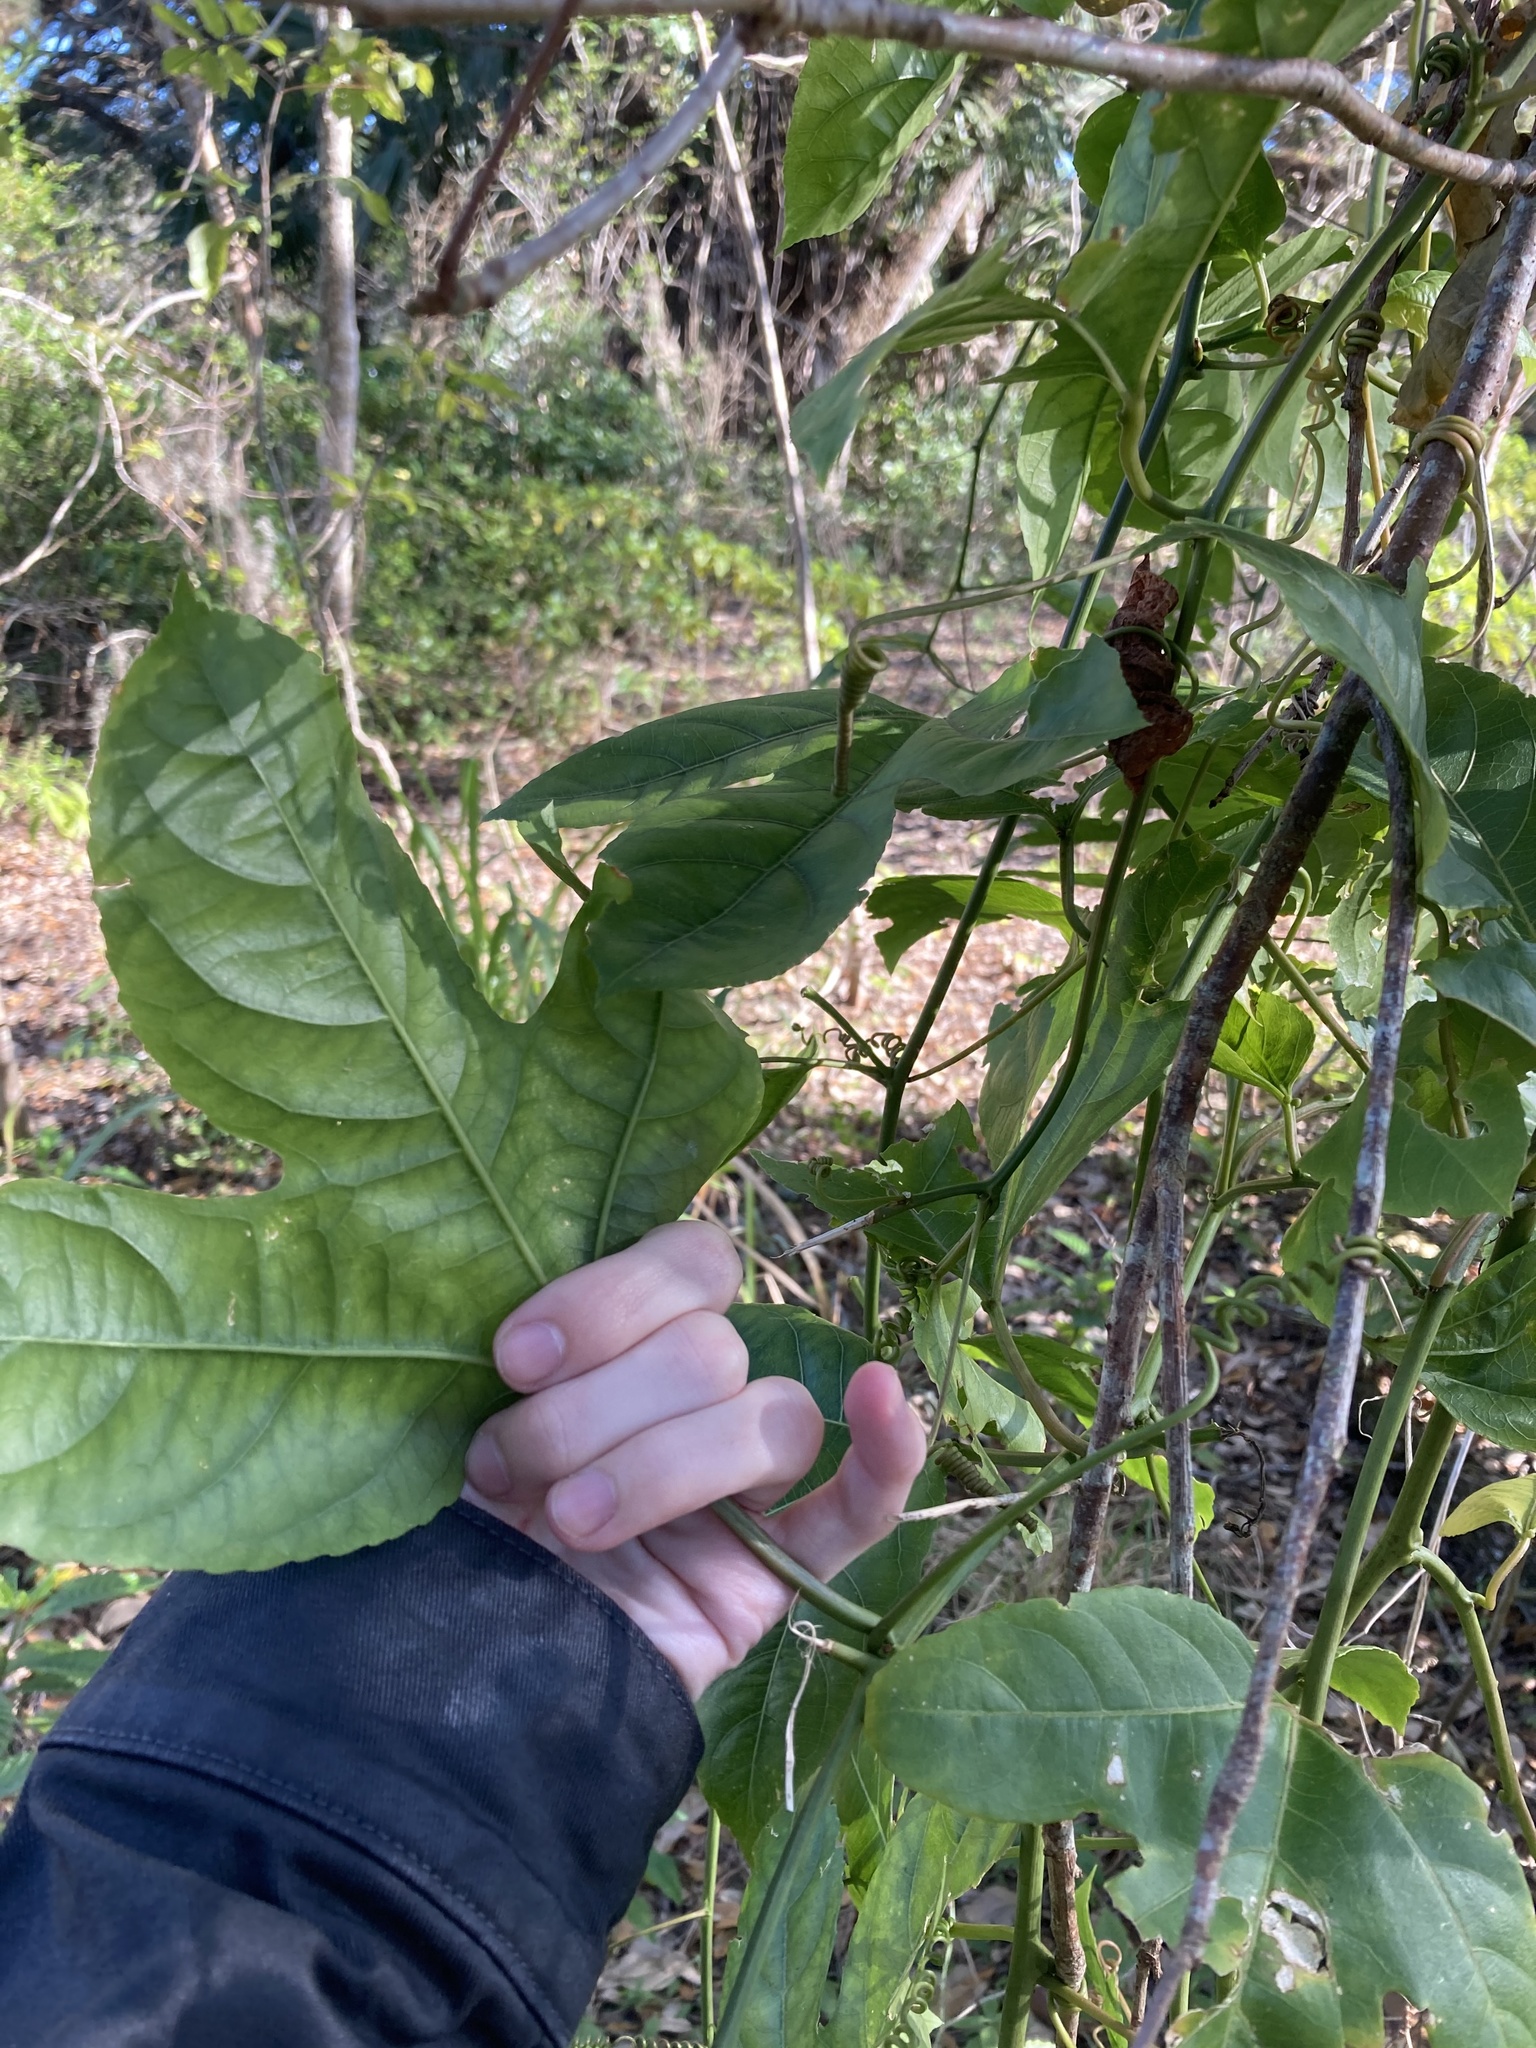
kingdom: Plantae
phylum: Tracheophyta
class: Magnoliopsida
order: Malpighiales
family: Passifloraceae
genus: Passiflora
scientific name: Passiflora edulis
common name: Purple granadilla
